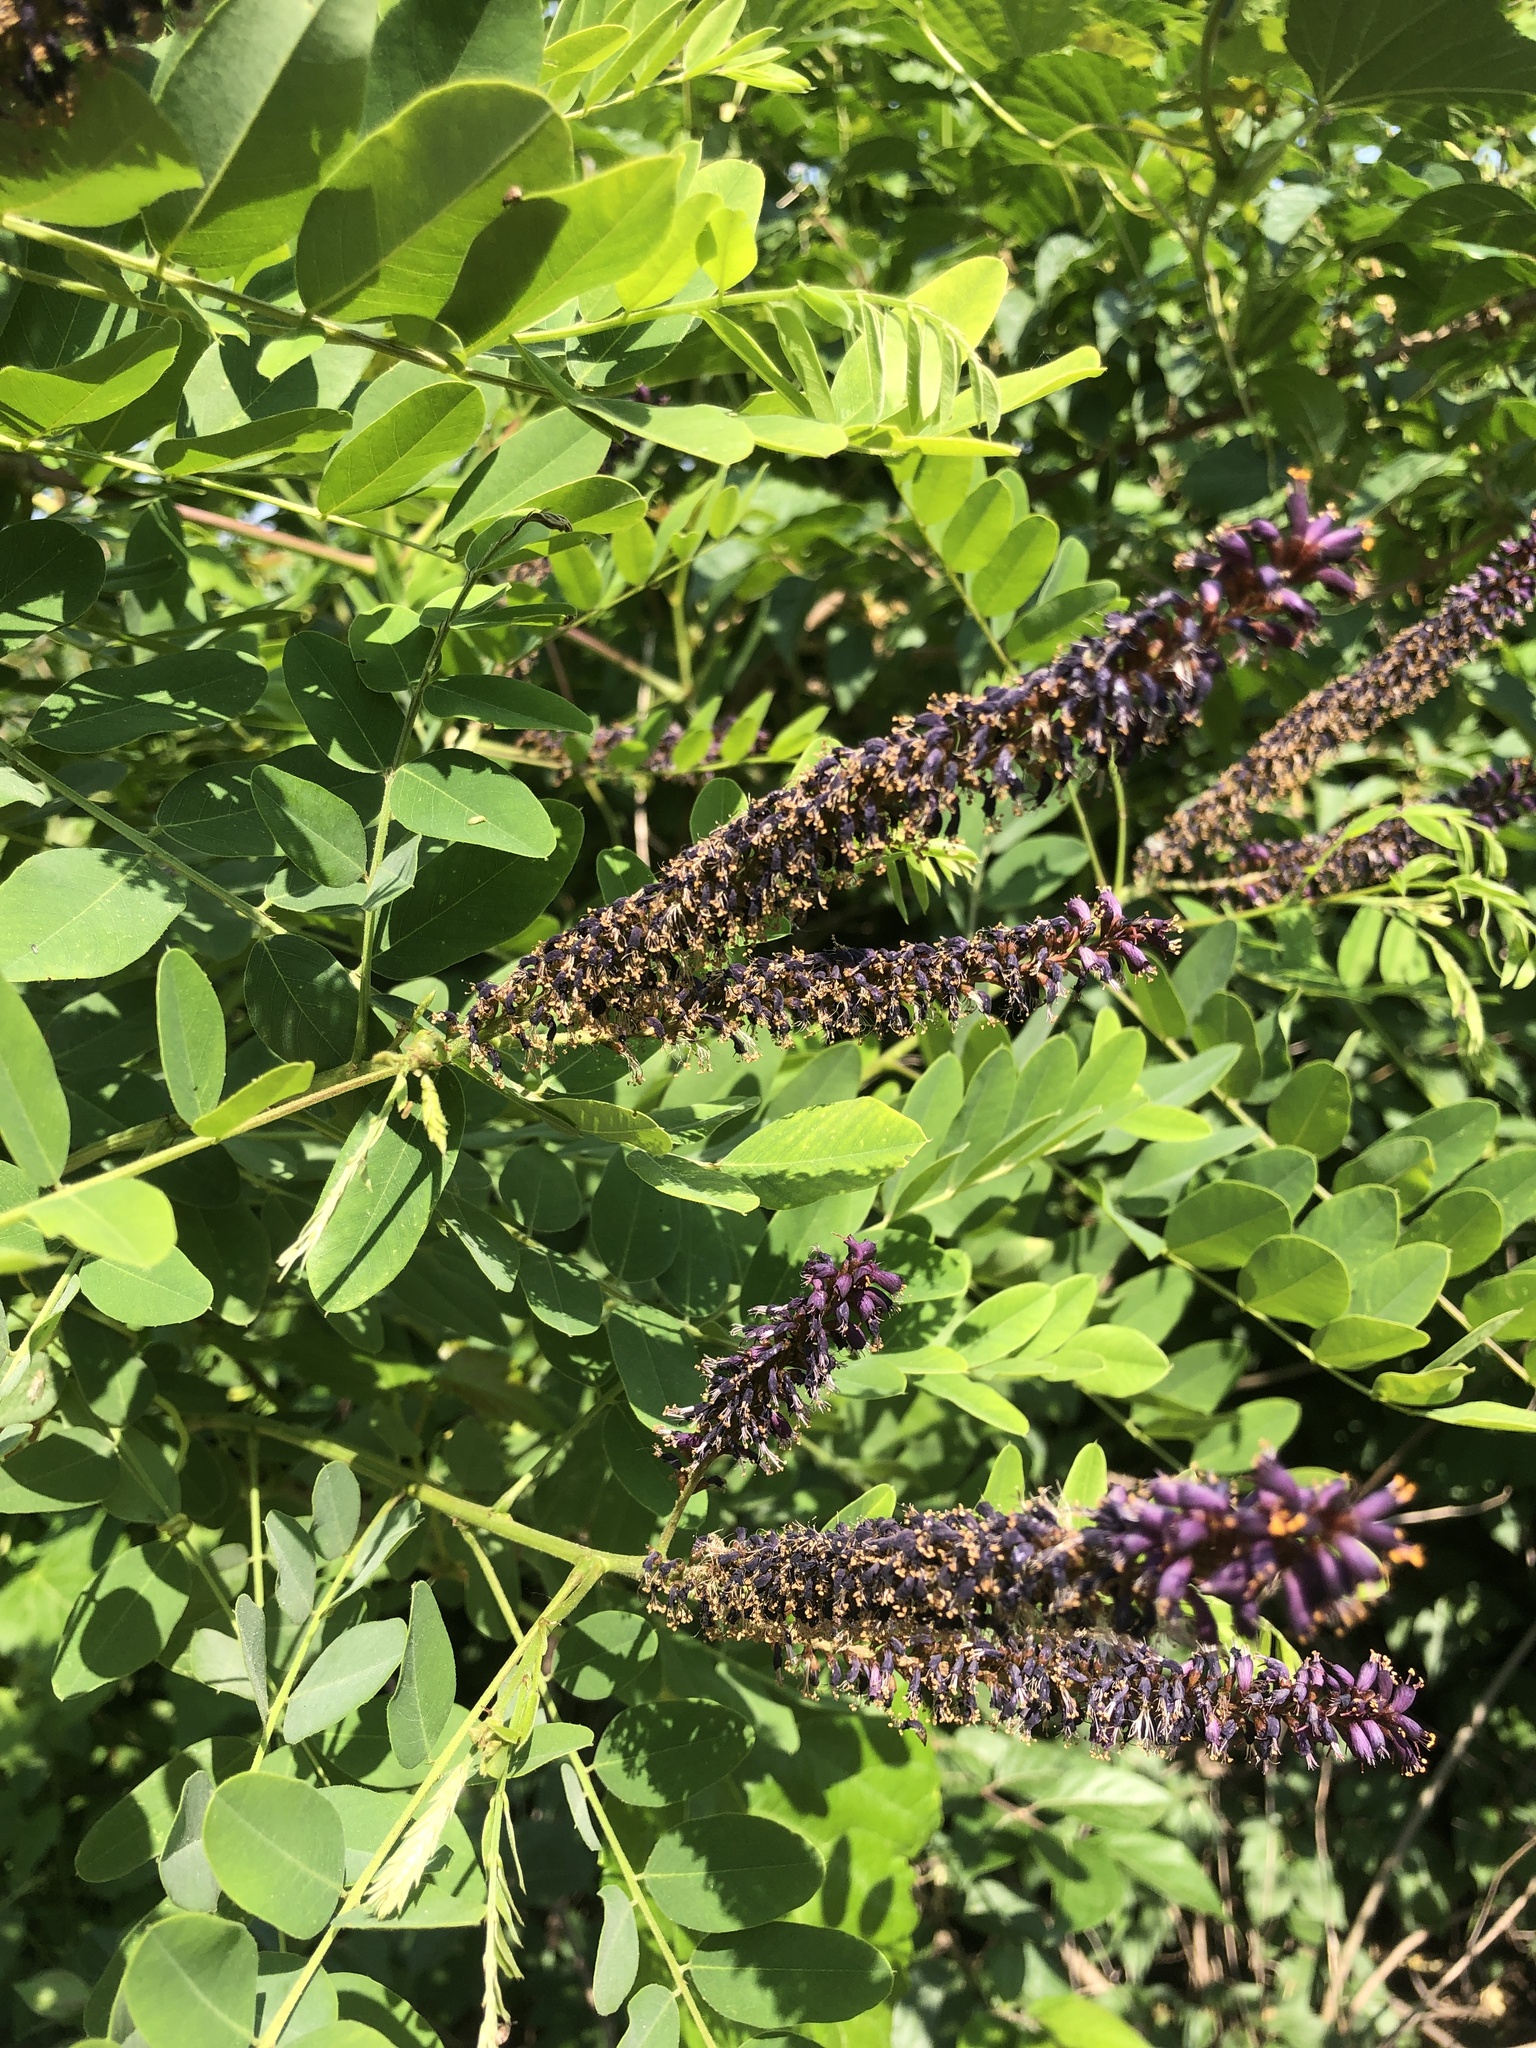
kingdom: Plantae
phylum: Tracheophyta
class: Magnoliopsida
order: Fabales
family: Fabaceae
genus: Amorpha
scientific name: Amorpha fruticosa
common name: False indigo
